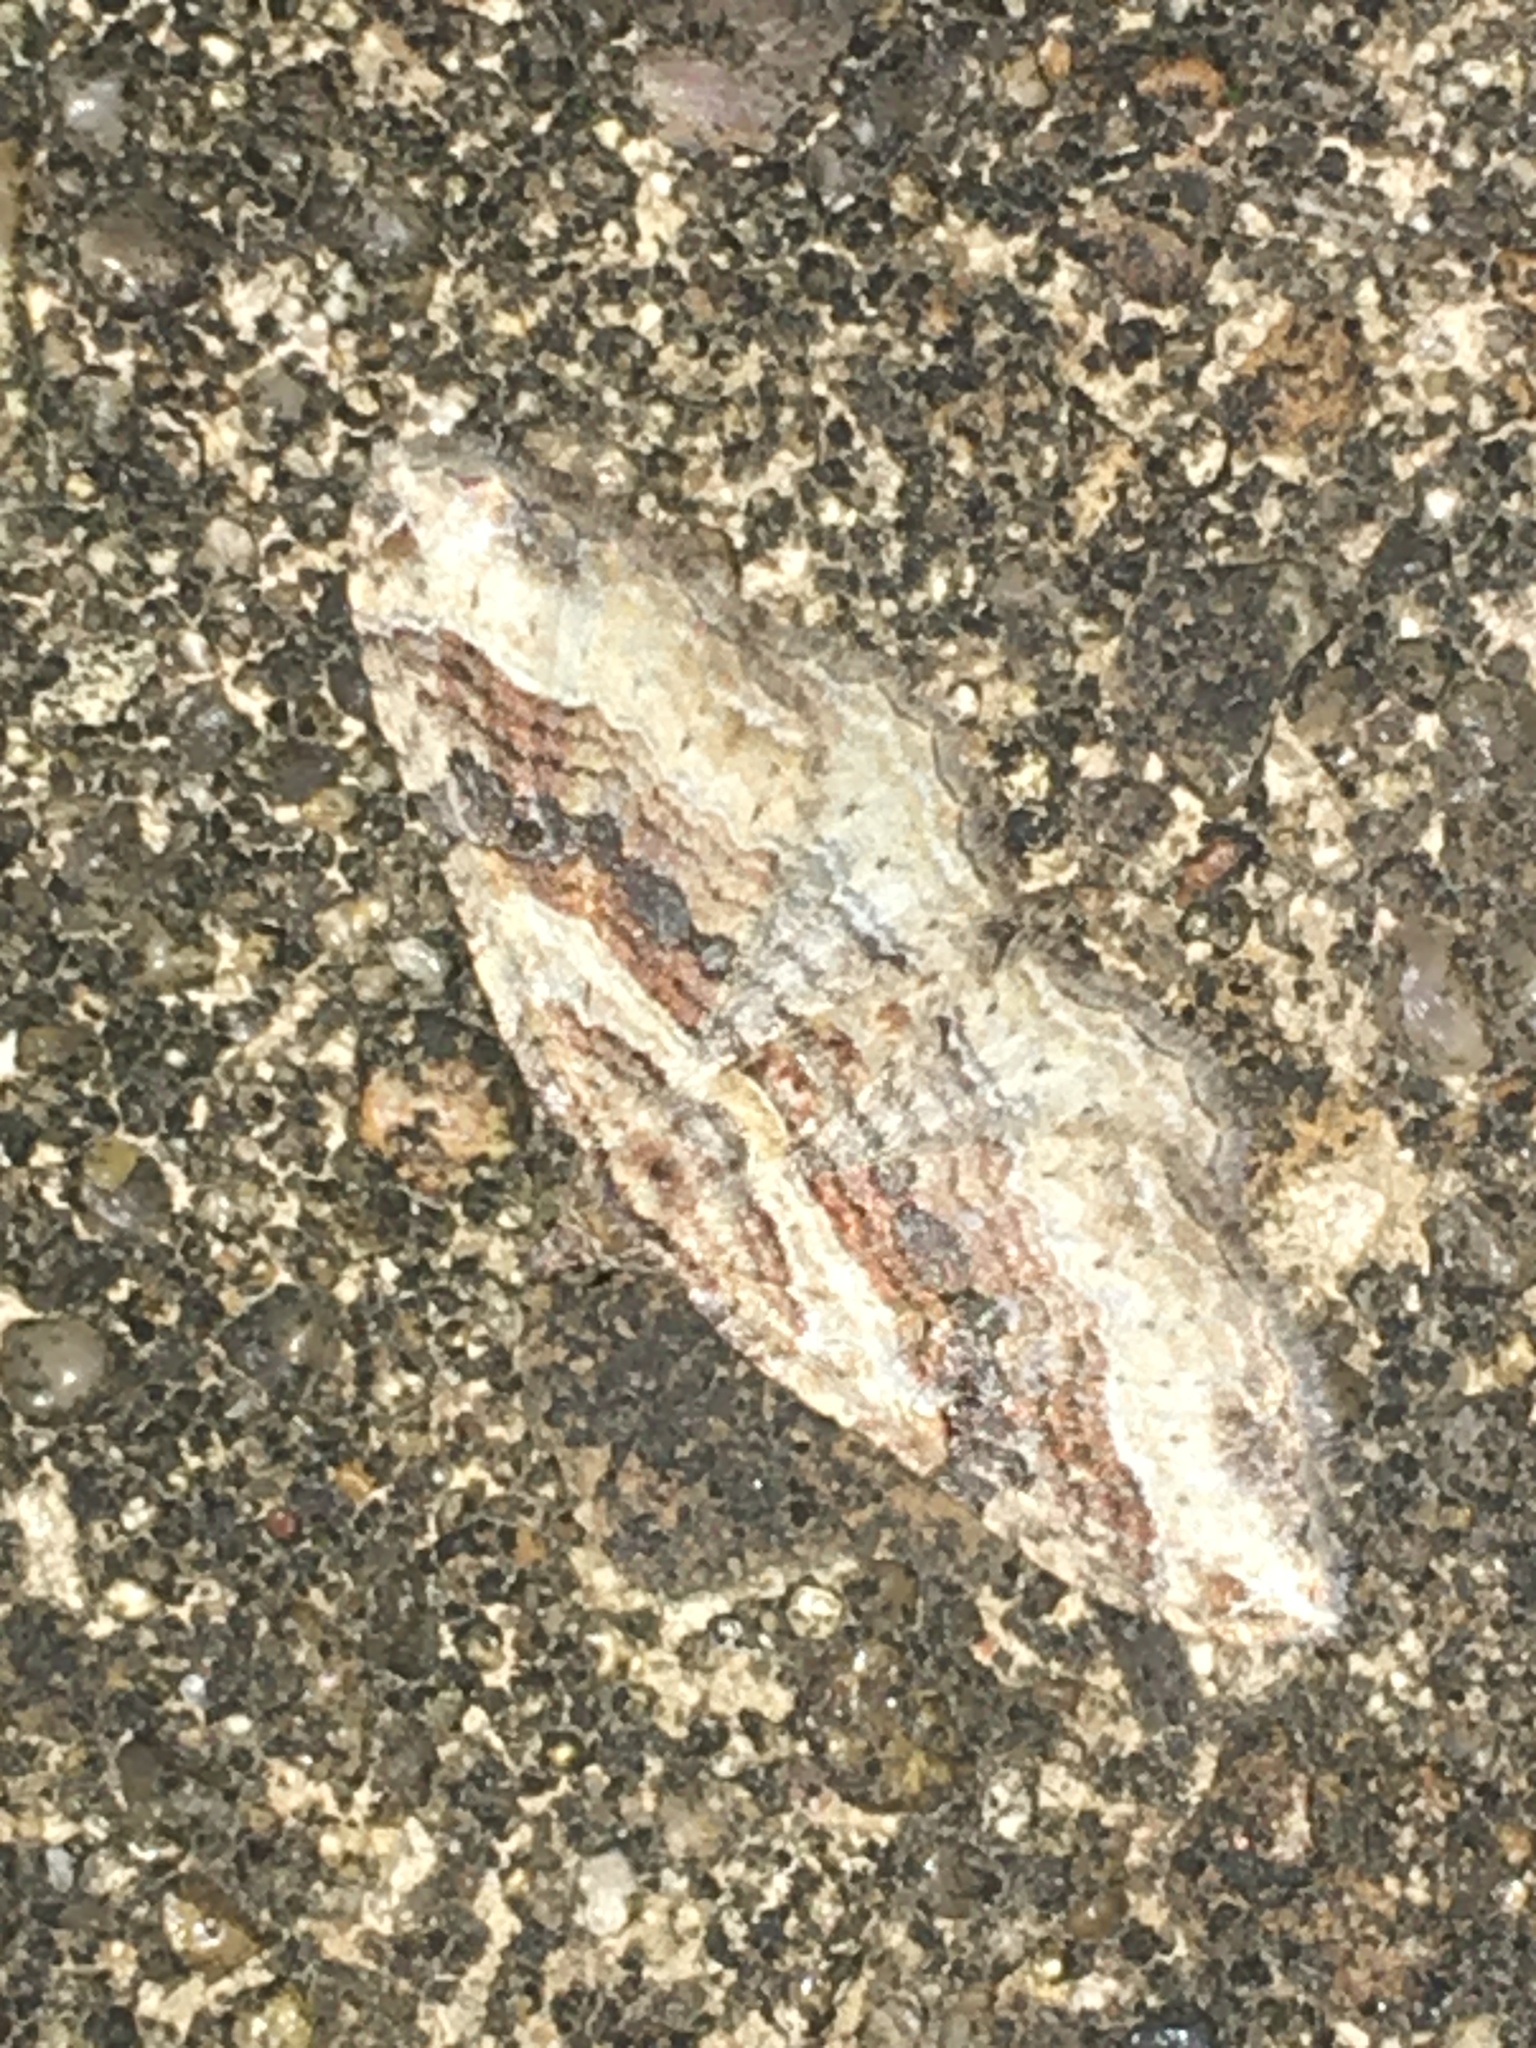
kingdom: Animalia
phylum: Arthropoda
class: Insecta
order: Lepidoptera
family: Geometridae
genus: Costaconvexa
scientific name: Costaconvexa centrostrigaria
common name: Bent-line carpet
